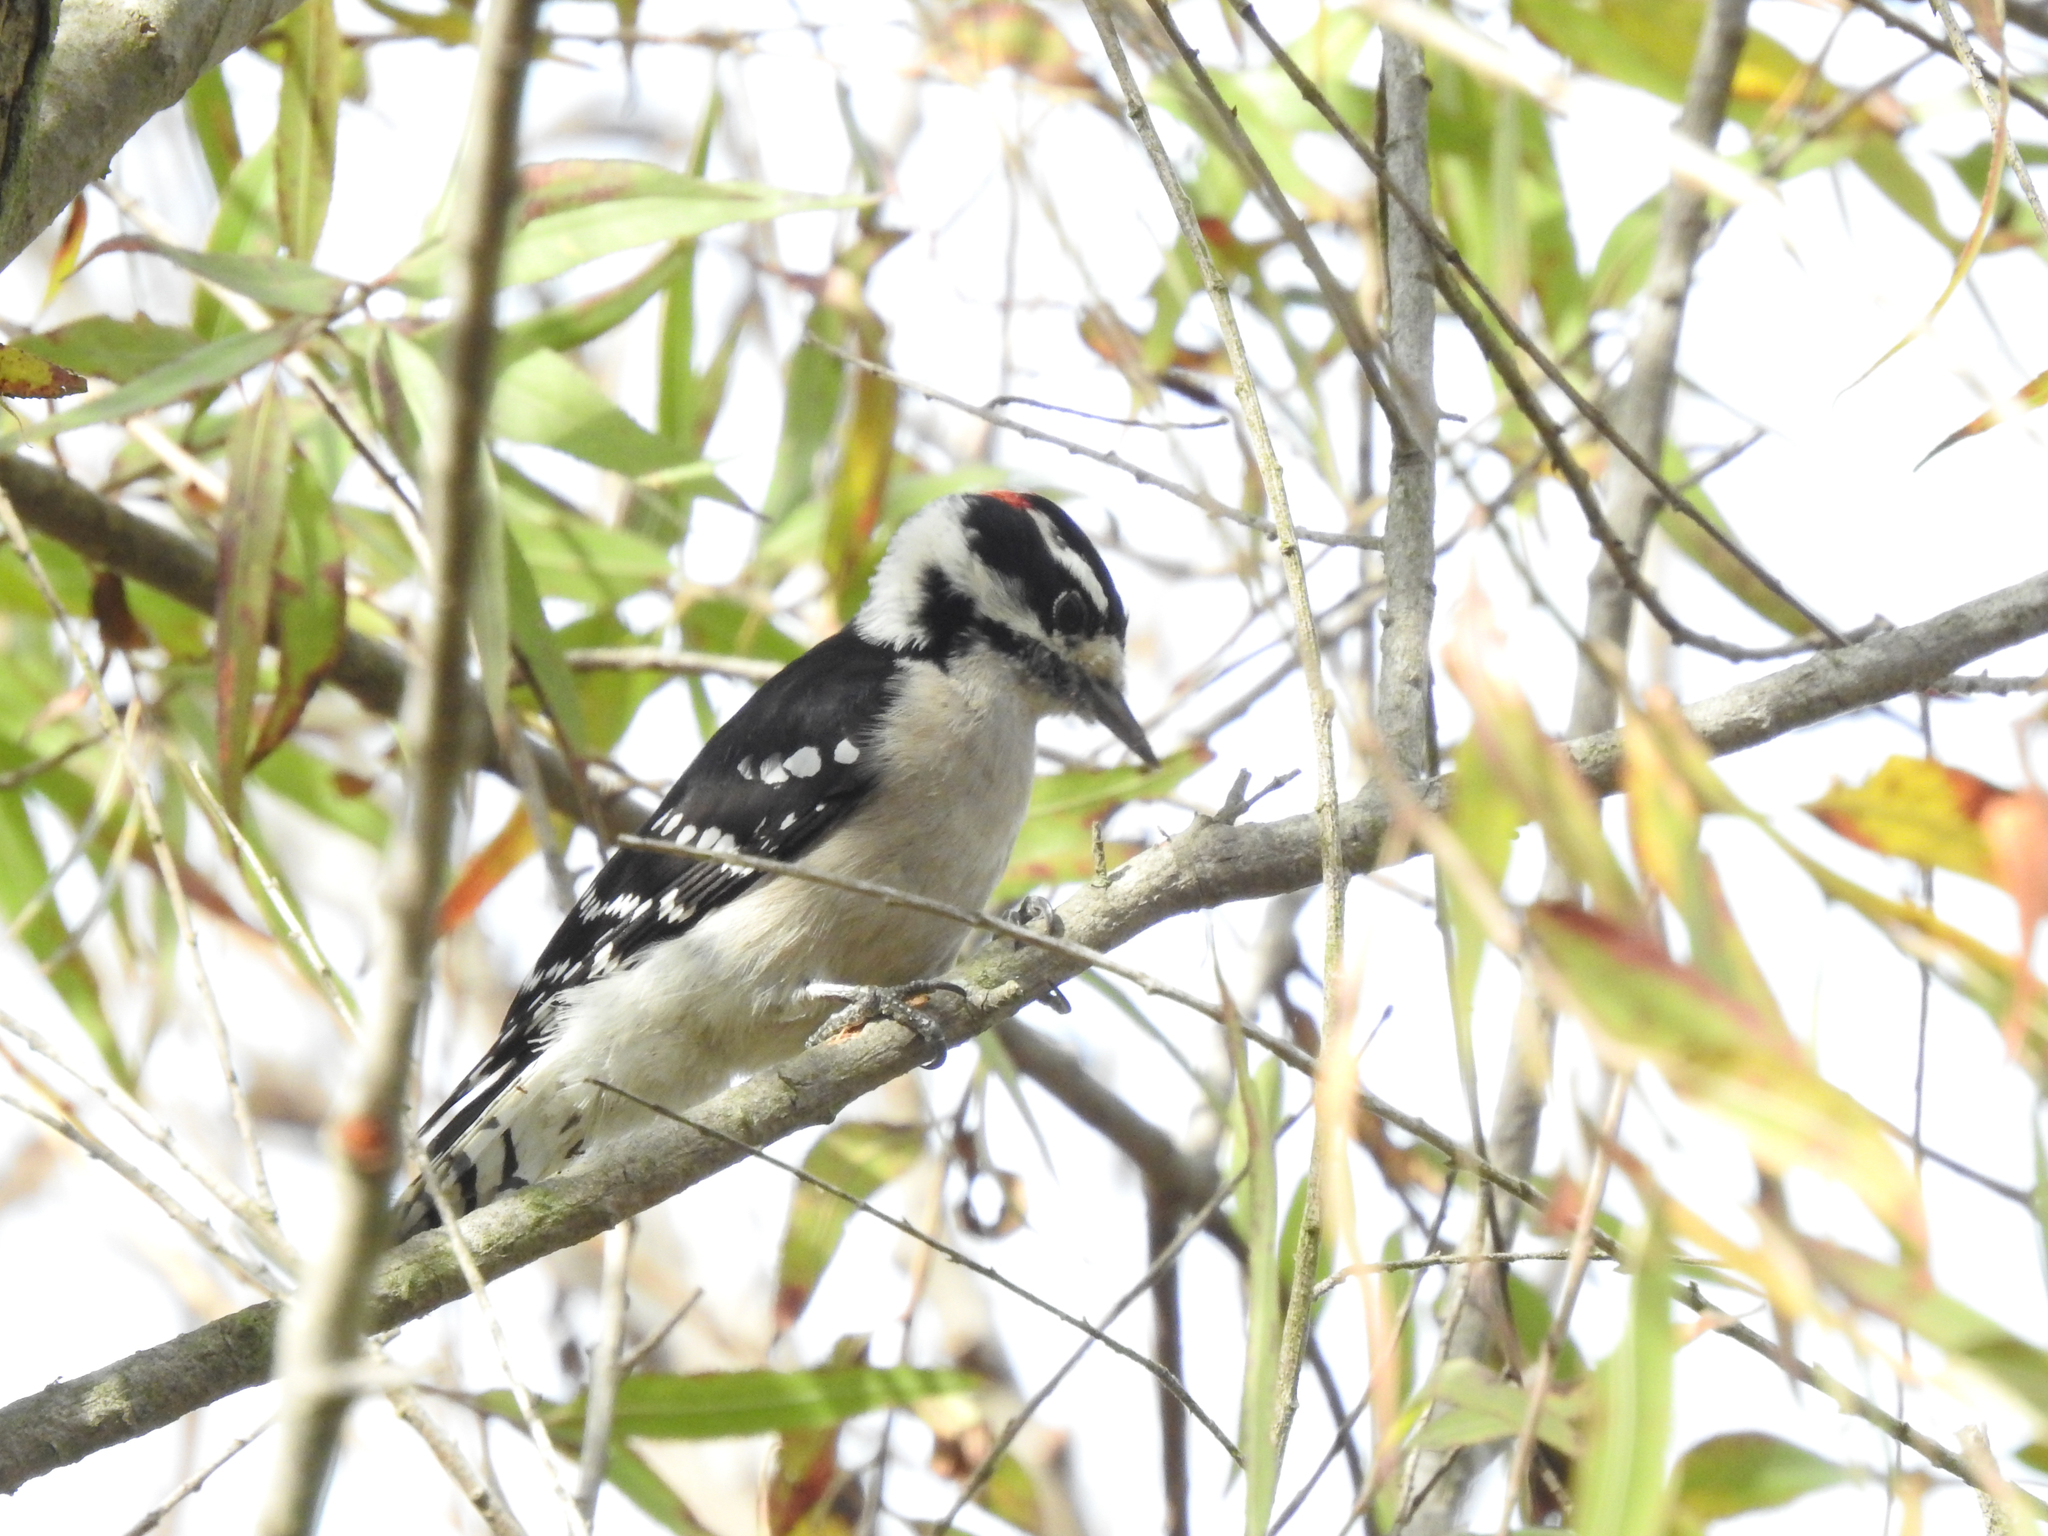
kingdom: Animalia
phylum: Chordata
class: Aves
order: Piciformes
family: Picidae
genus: Dryobates
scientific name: Dryobates pubescens
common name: Downy woodpecker
